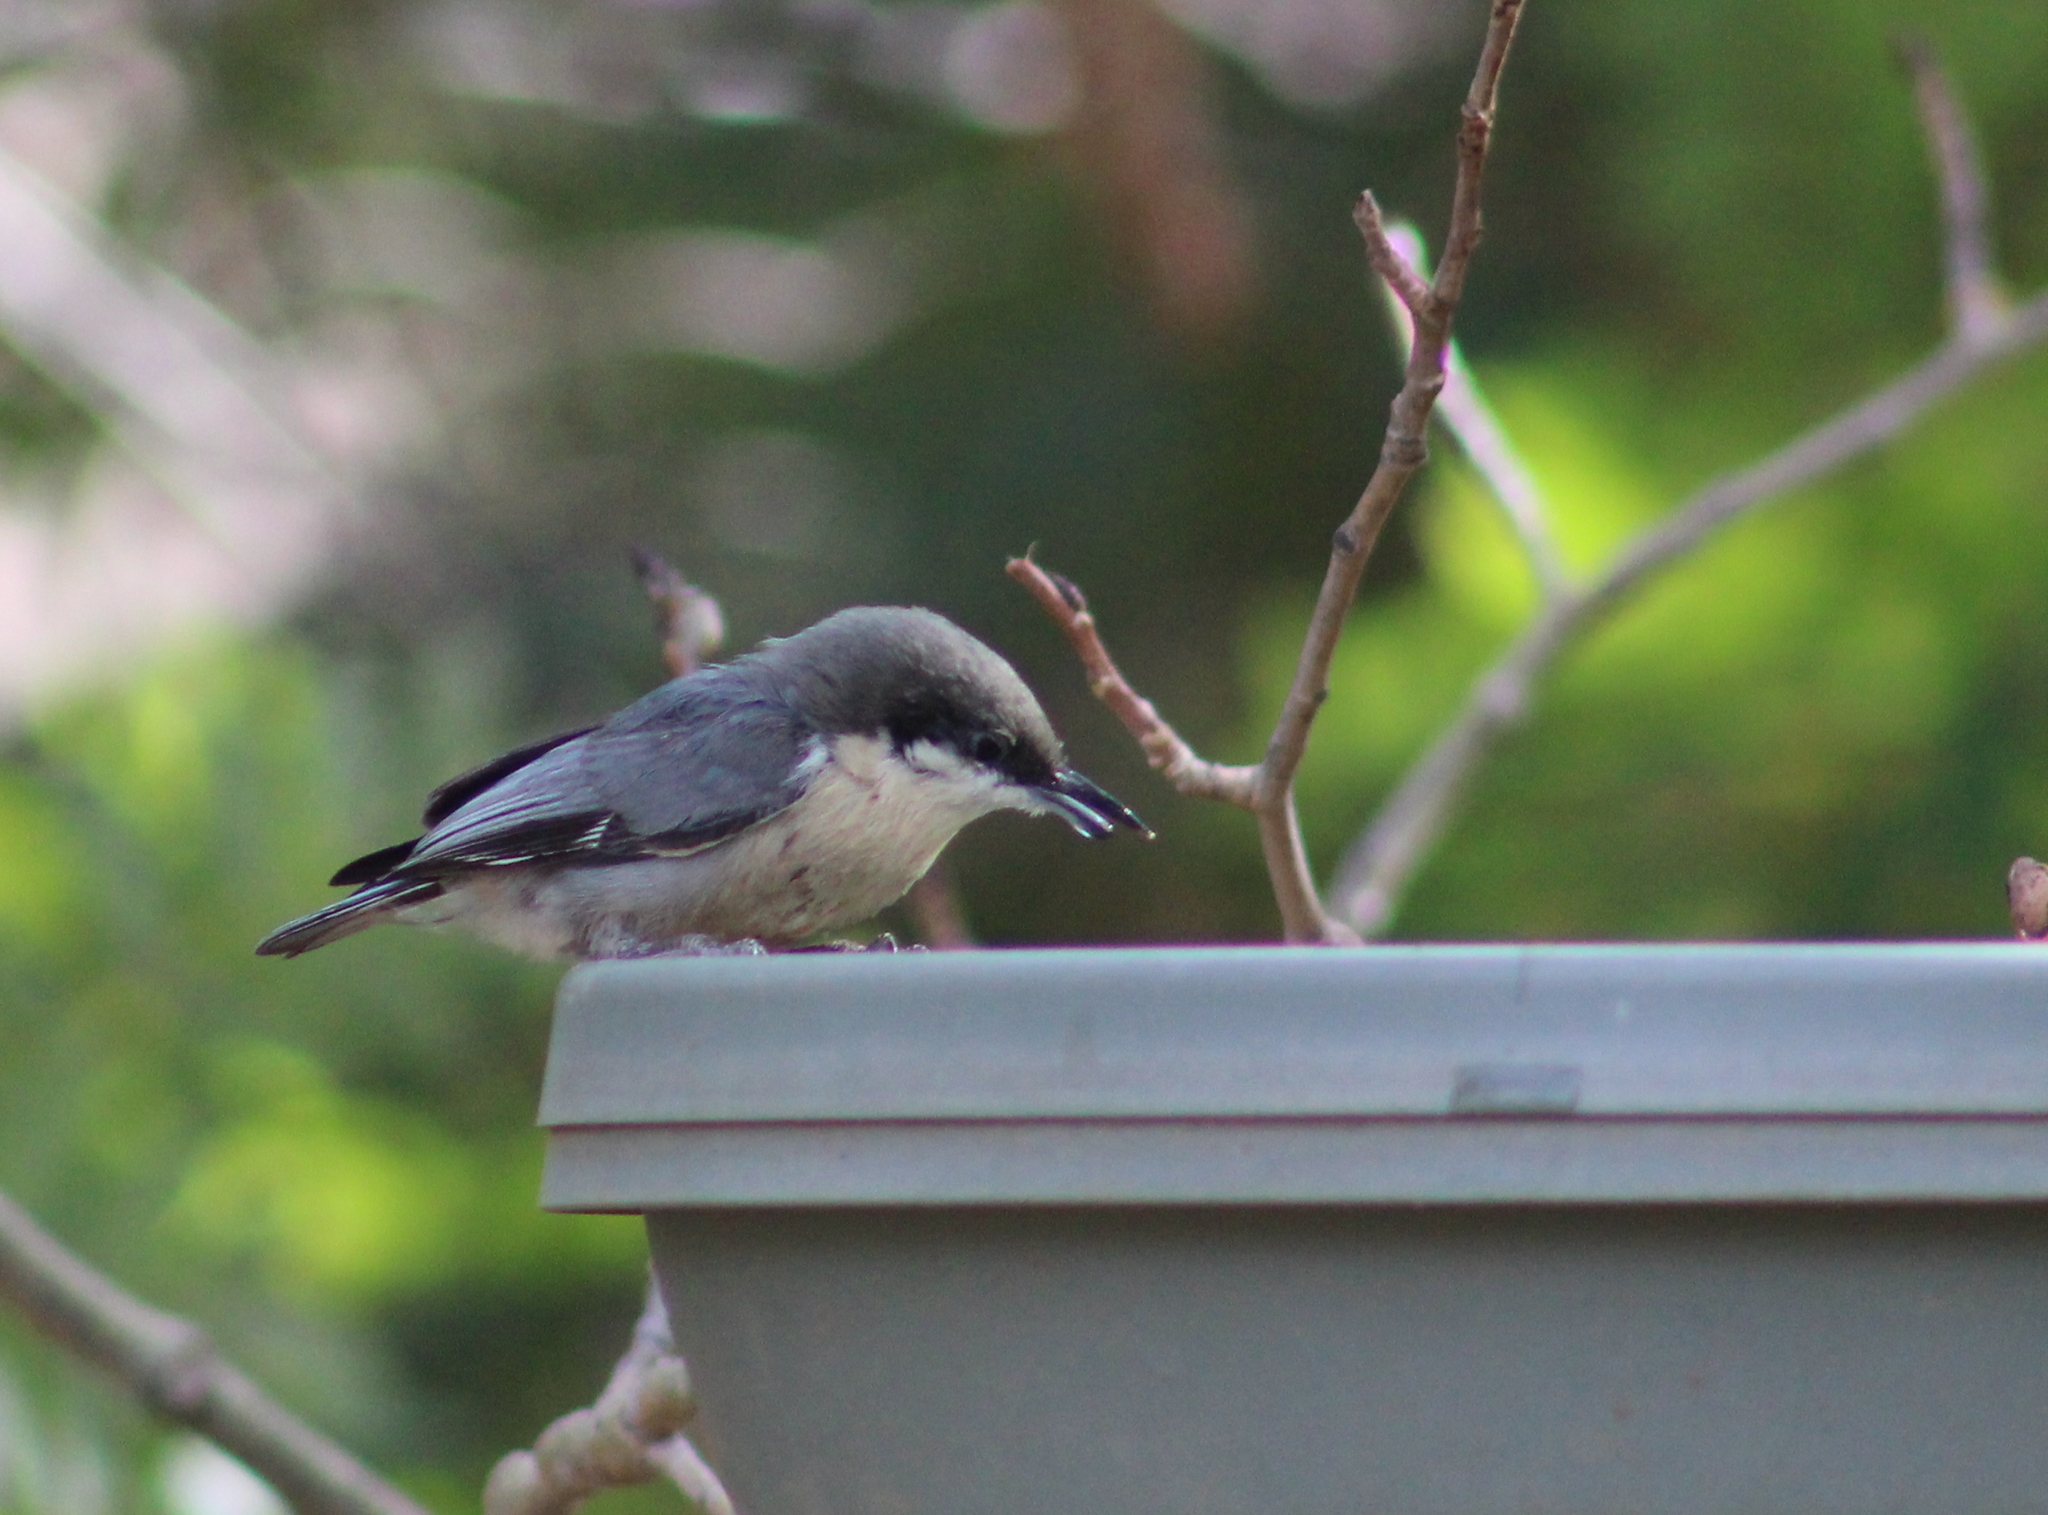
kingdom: Animalia
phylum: Chordata
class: Aves
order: Passeriformes
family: Sittidae
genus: Sitta
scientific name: Sitta pygmaea
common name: Pygmy nuthatch
